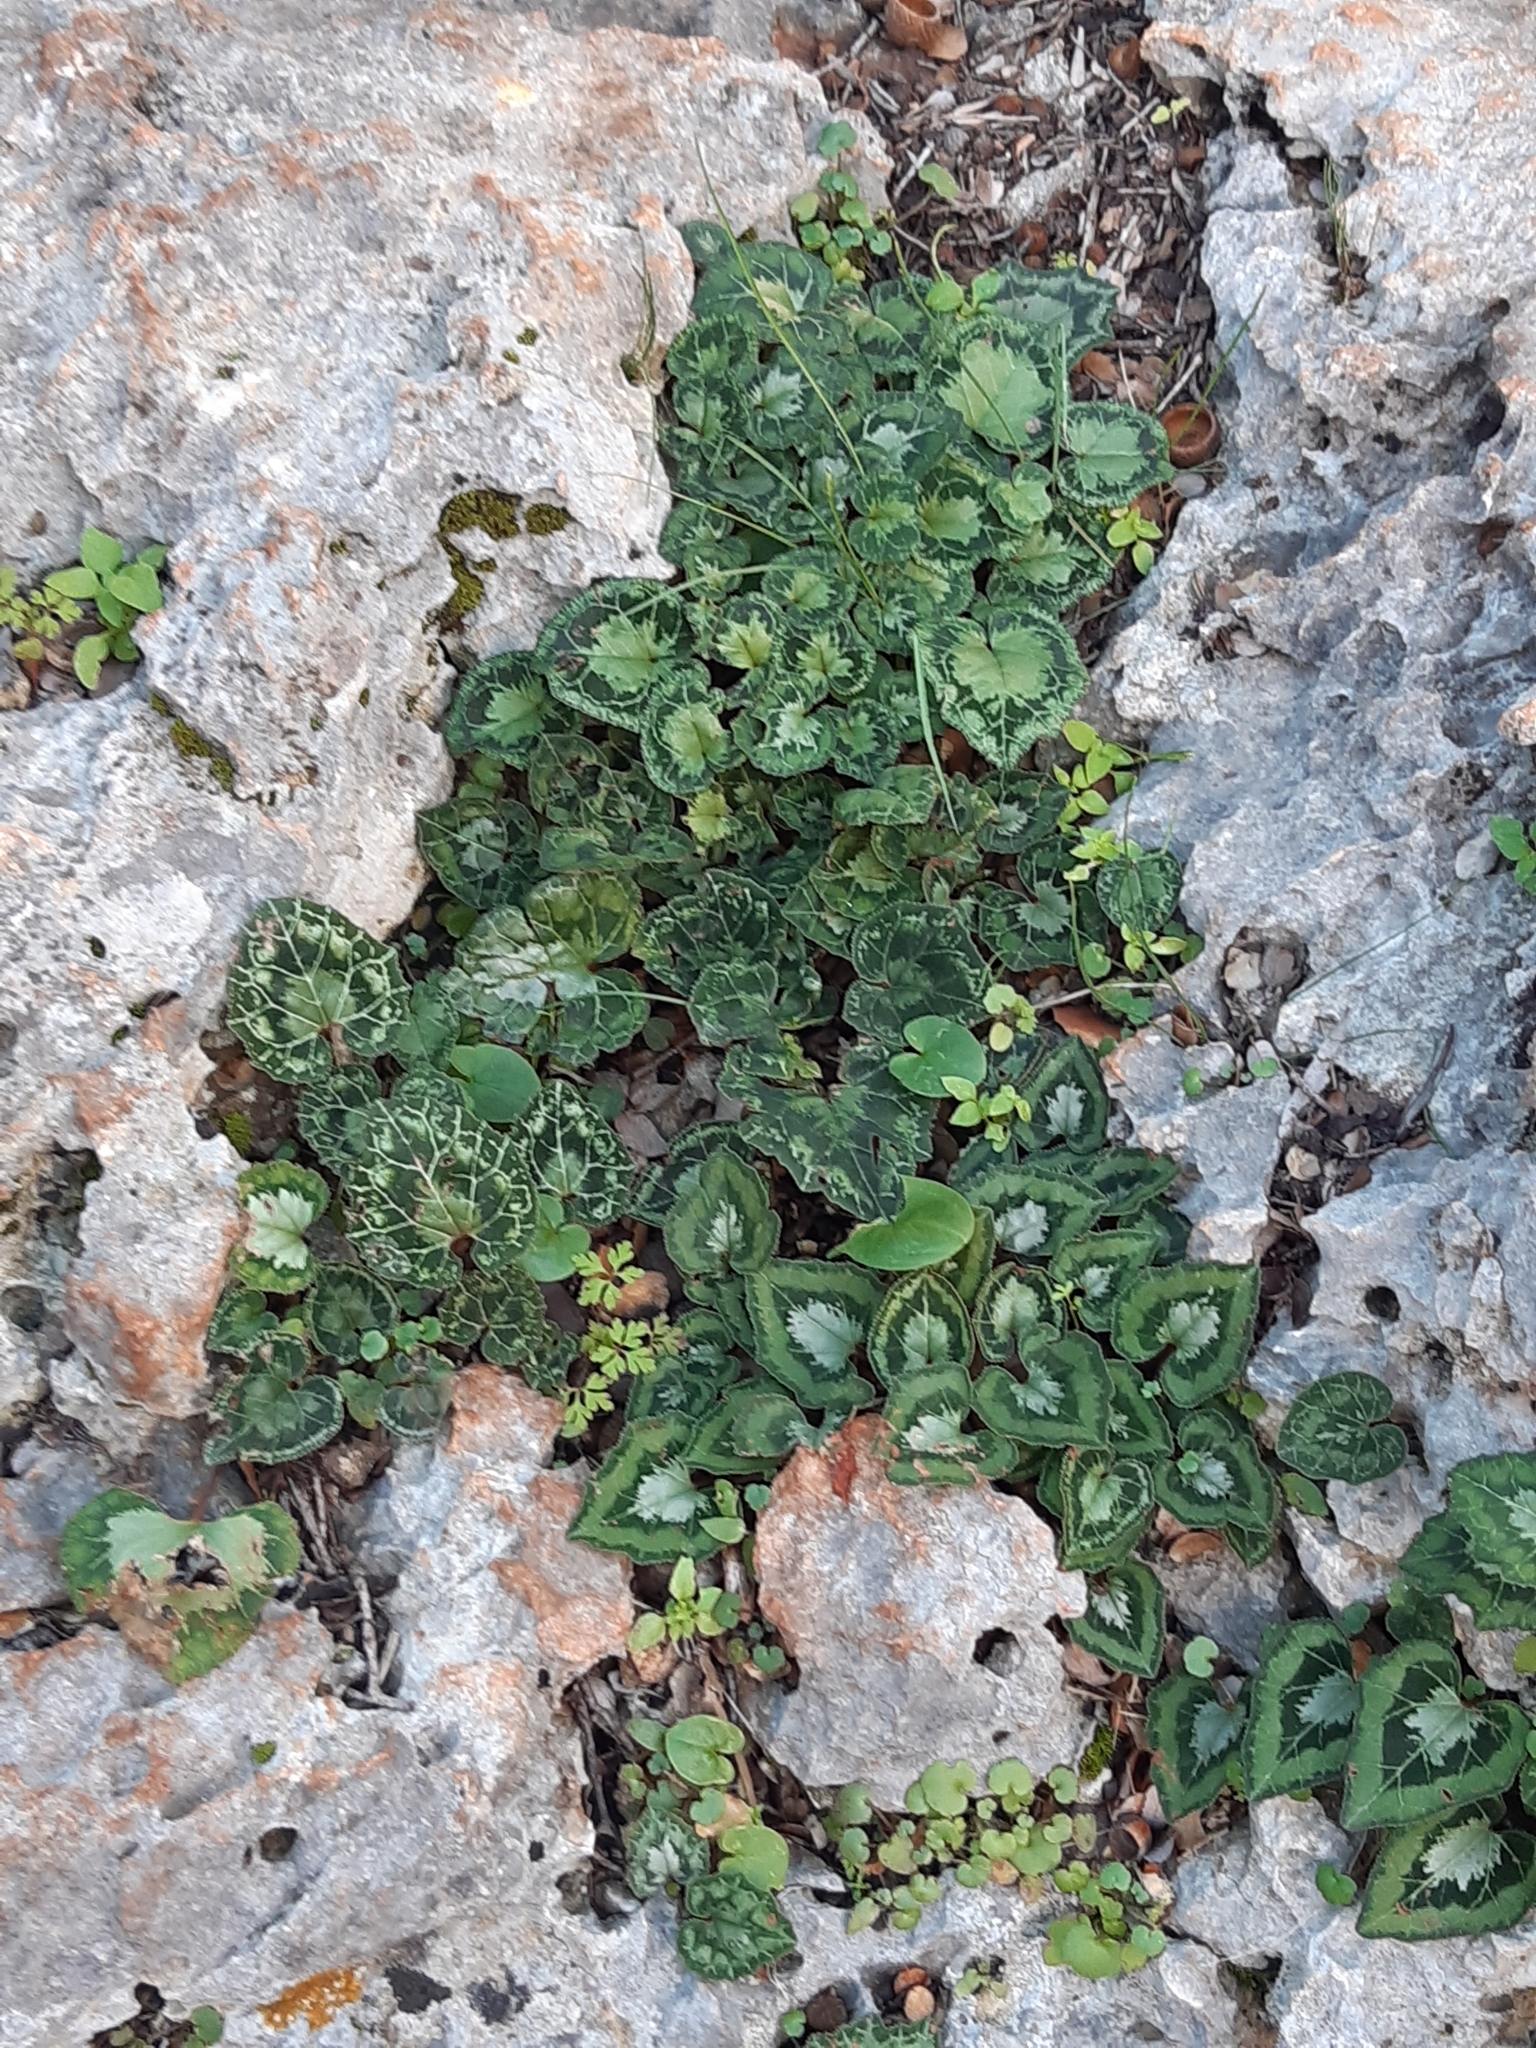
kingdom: Plantae
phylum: Tracheophyta
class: Magnoliopsida
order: Ericales
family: Primulaceae
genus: Cyclamen
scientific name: Cyclamen graecum
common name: Greek cyclamen
